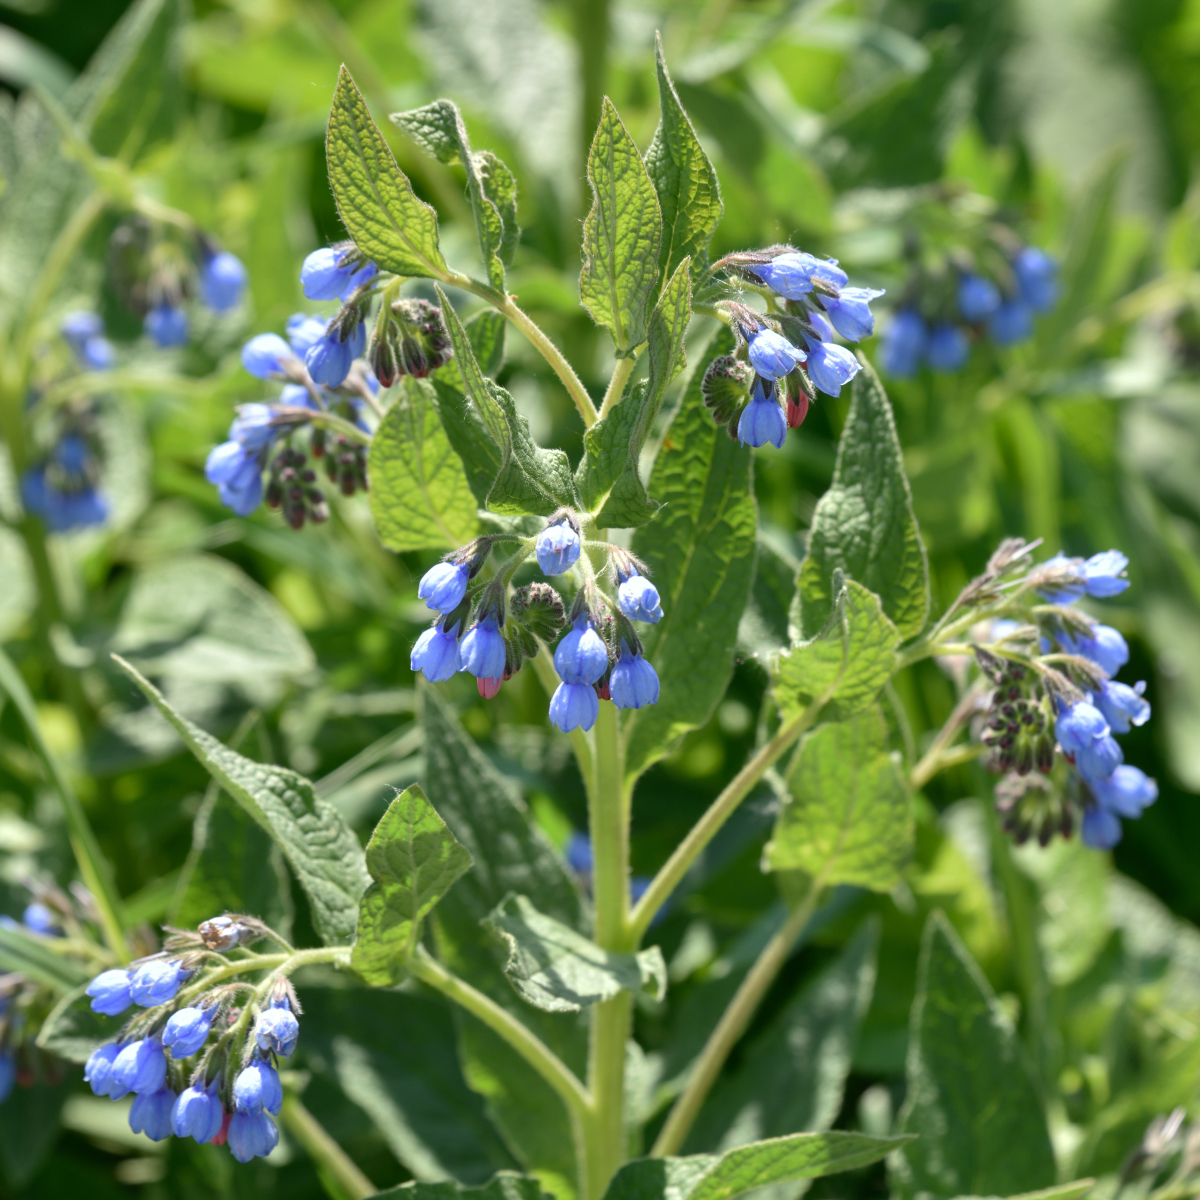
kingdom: Plantae
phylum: Tracheophyta
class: Magnoliopsida
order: Boraginales
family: Boraginaceae
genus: Symphytum
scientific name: Symphytum caucasicum
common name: Caucasian comfrey
